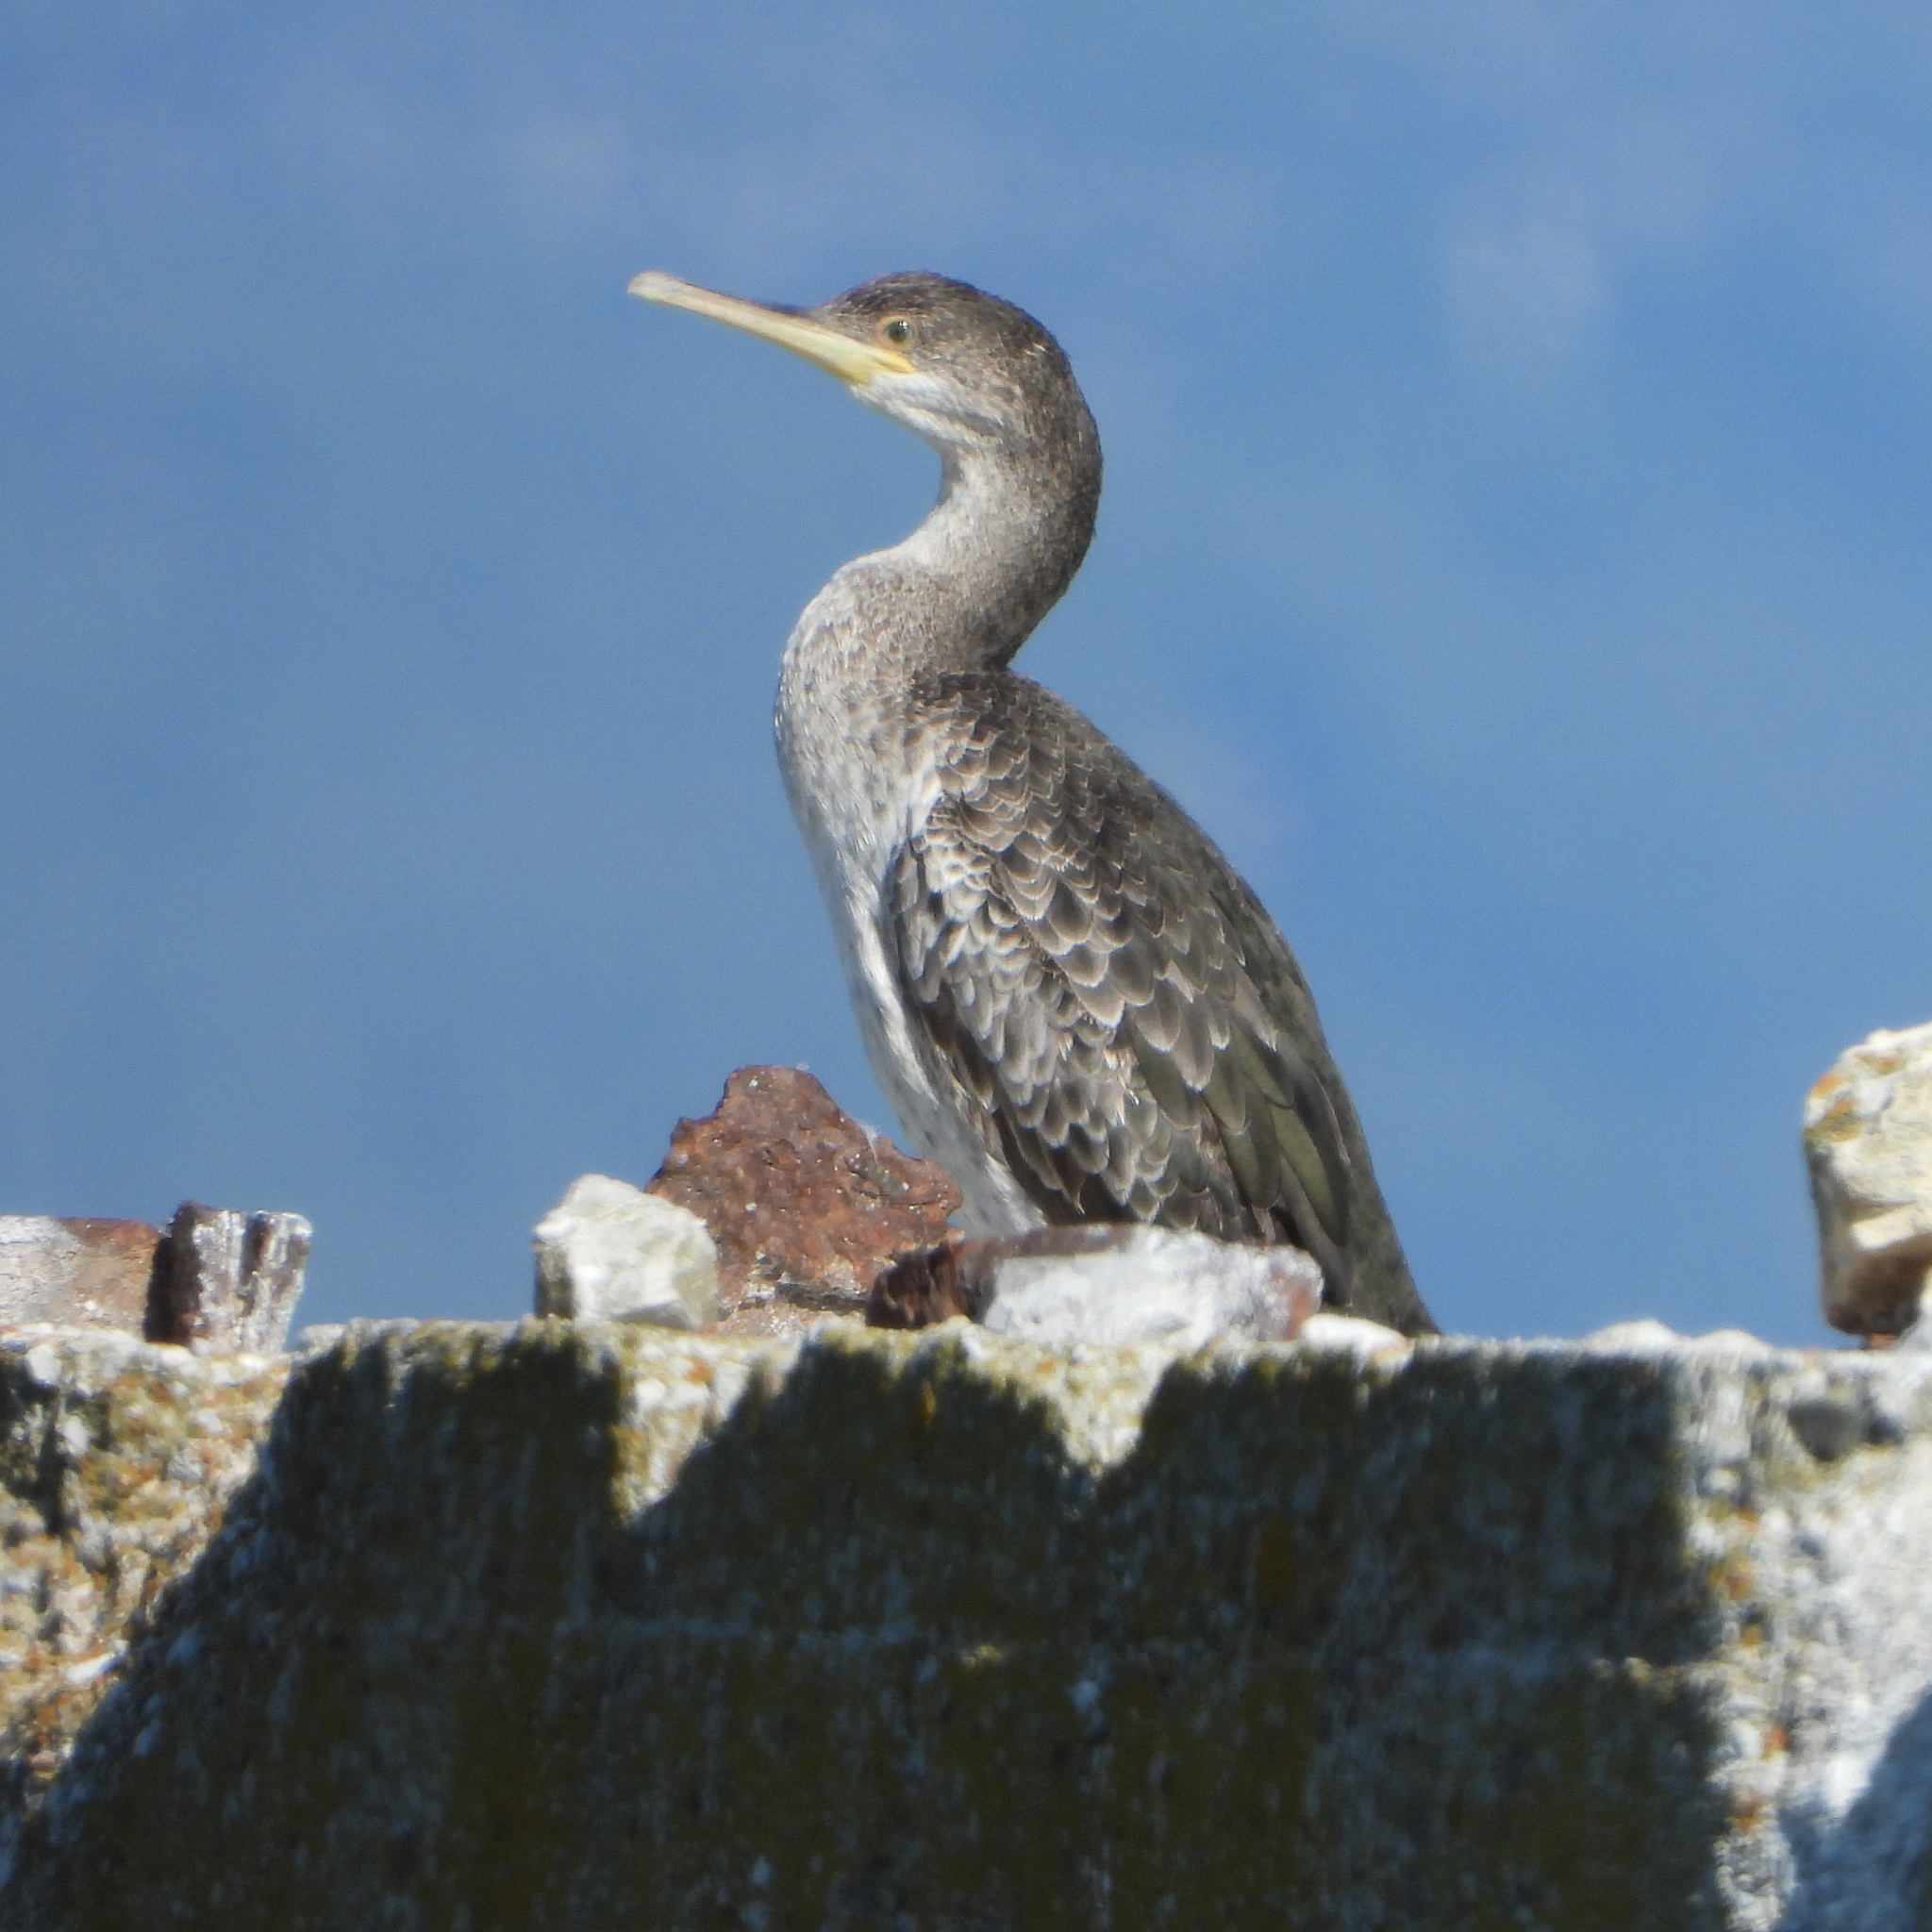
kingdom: Animalia
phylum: Chordata
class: Aves
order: Suliformes
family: Phalacrocoracidae
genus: Phalacrocorax
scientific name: Phalacrocorax aristotelis
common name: European shag
